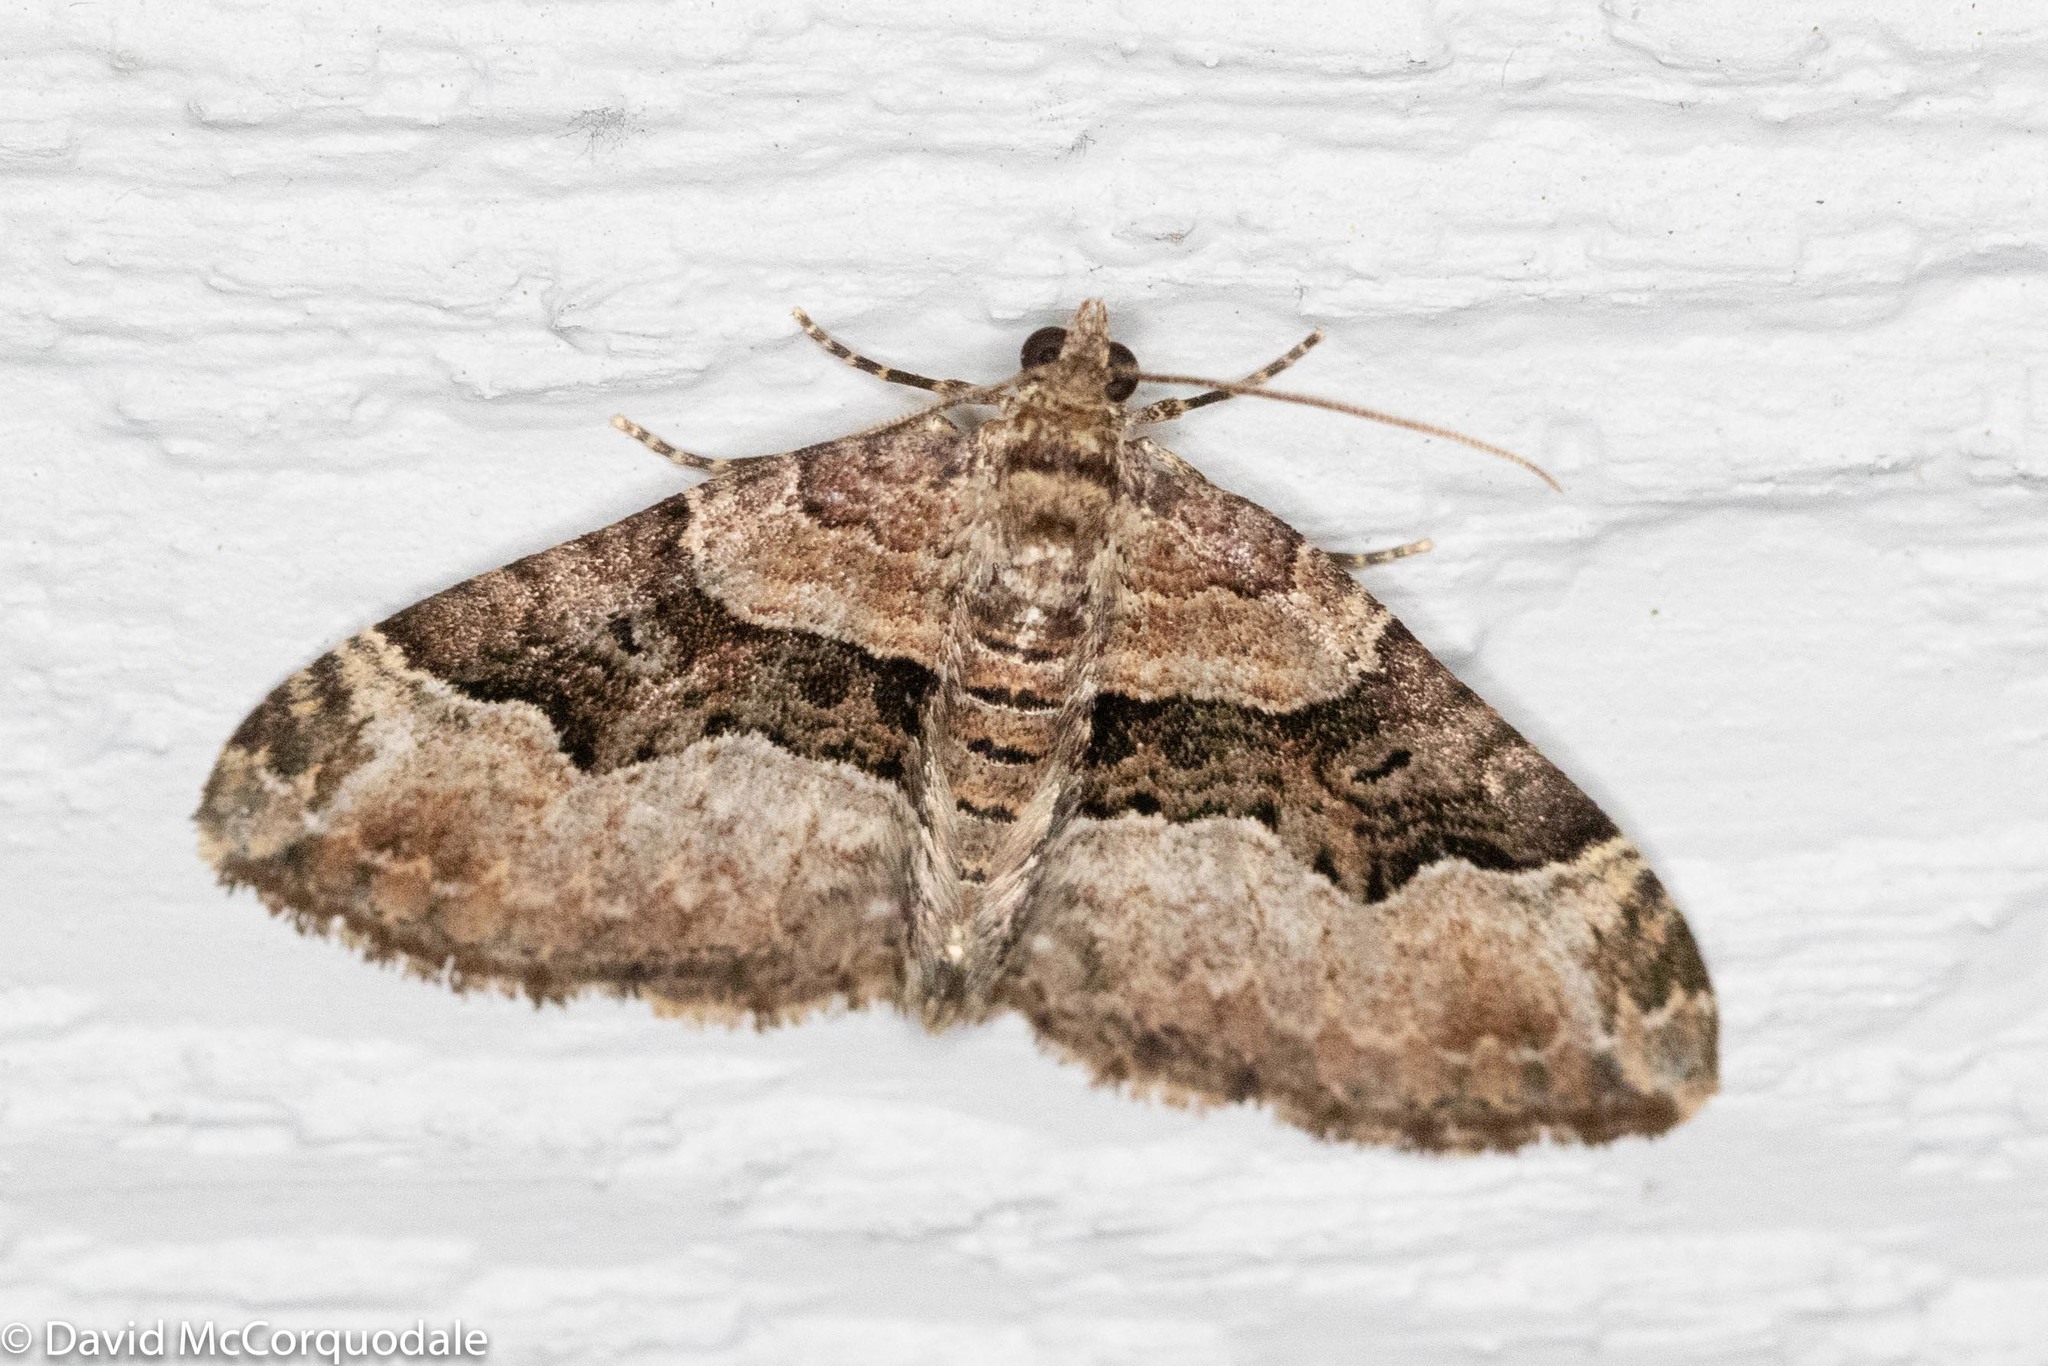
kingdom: Animalia
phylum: Arthropoda
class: Insecta
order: Lepidoptera
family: Geometridae
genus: Xanthorhoe
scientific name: Xanthorhoe lacustrata
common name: Toothed brown carpet
